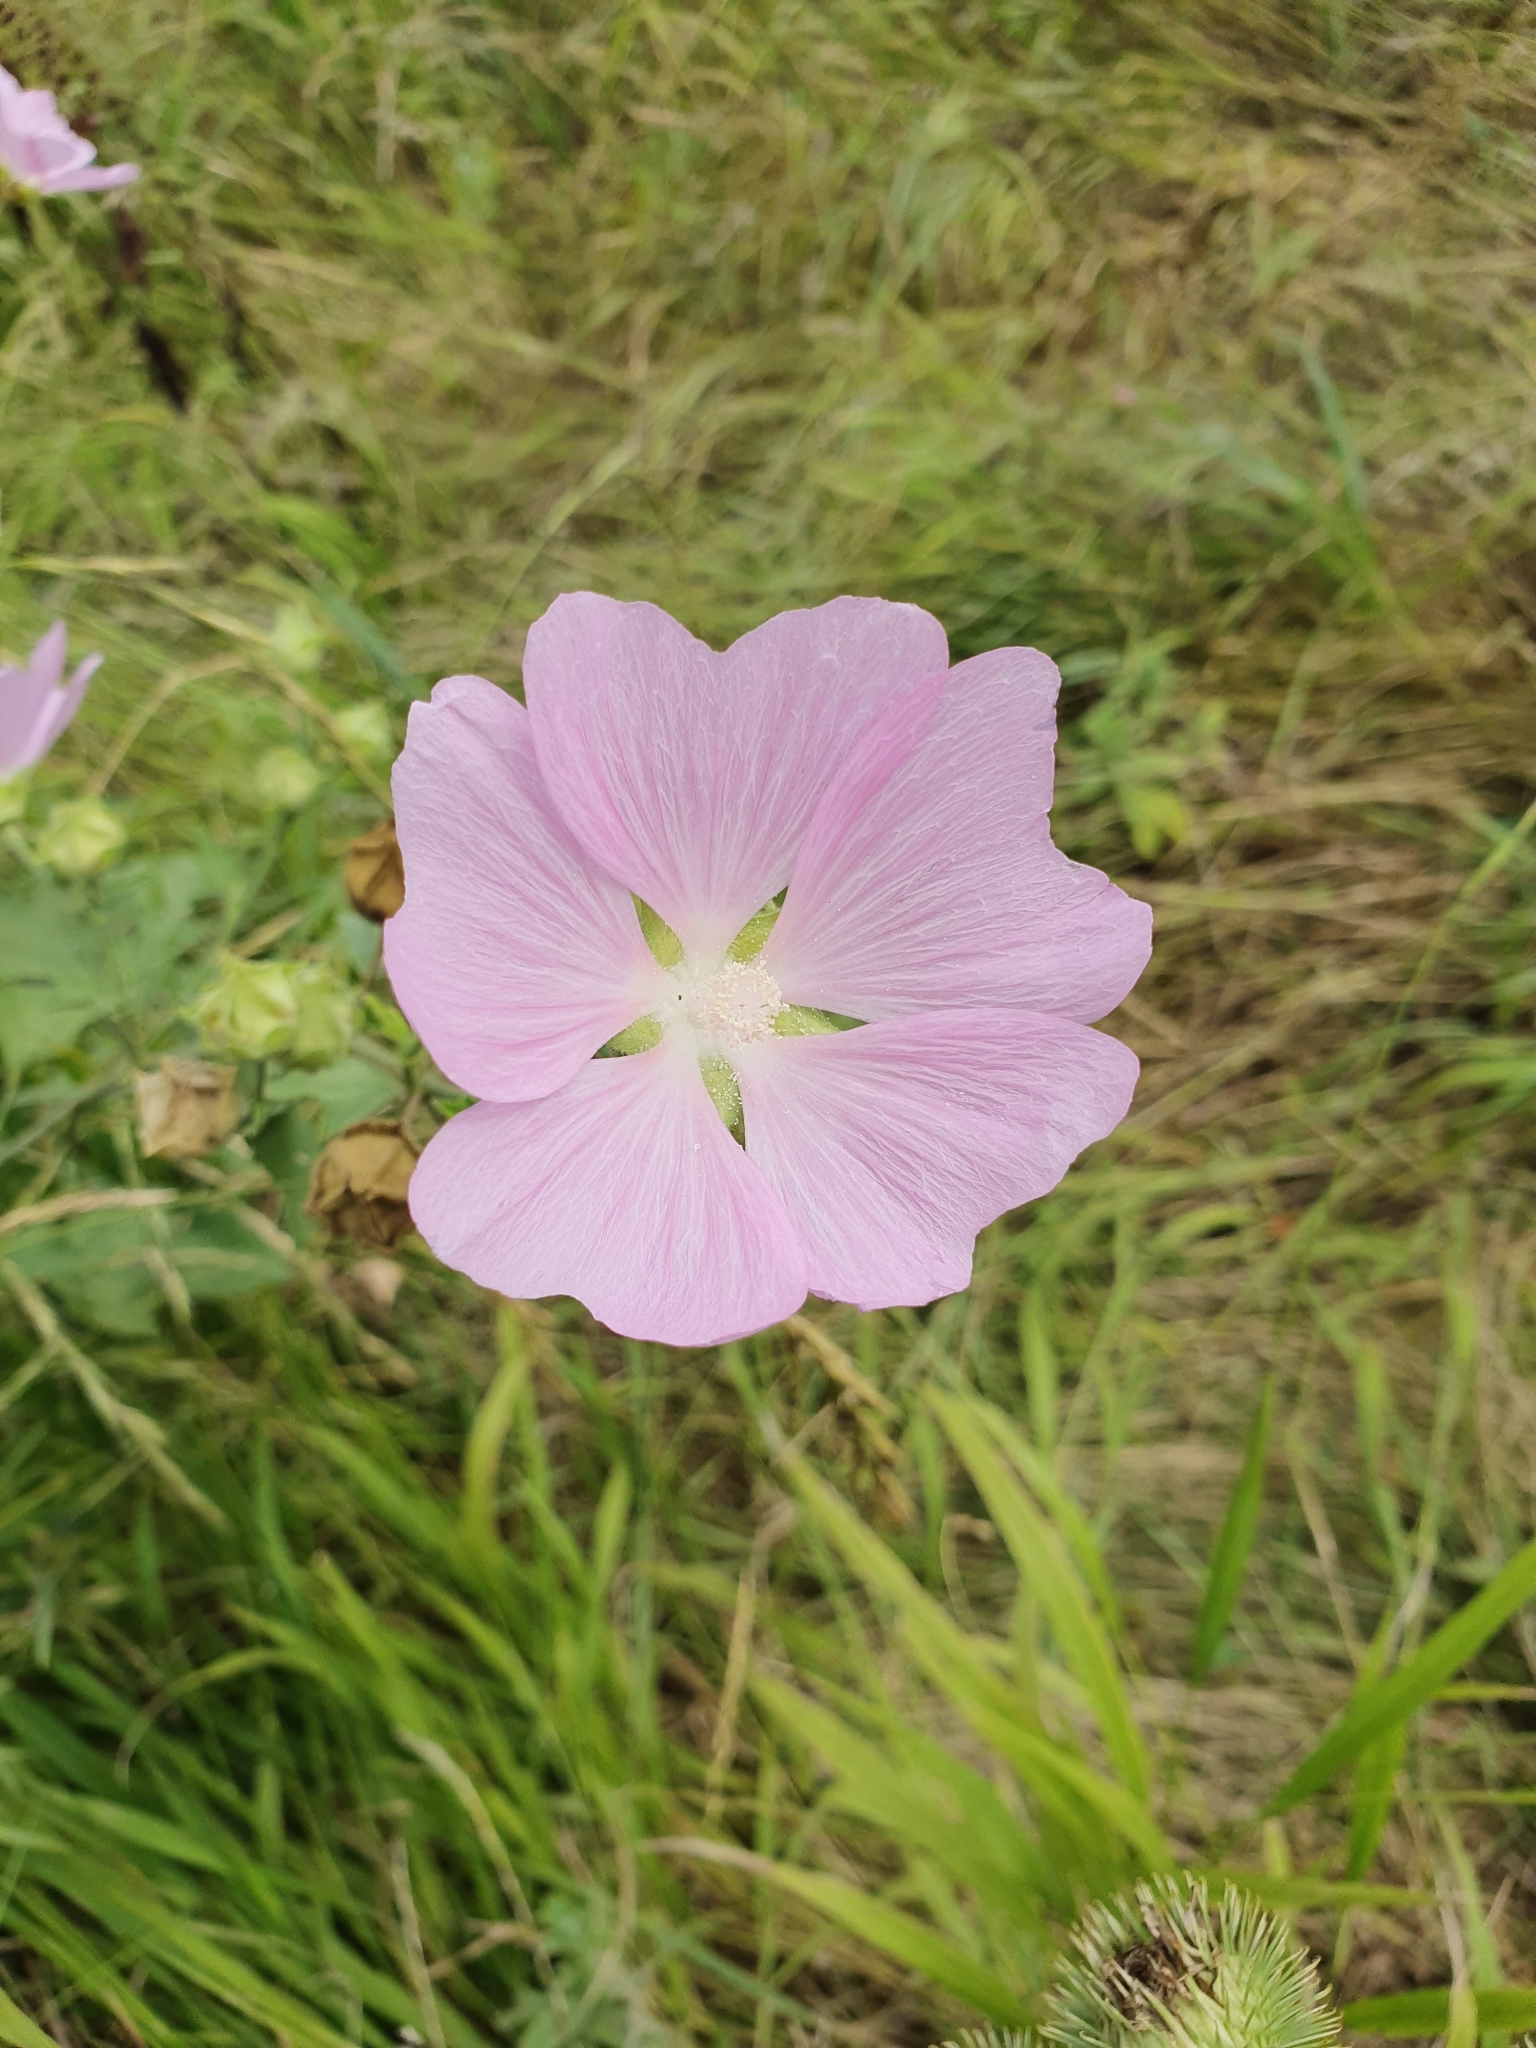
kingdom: Plantae
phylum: Tracheophyta
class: Magnoliopsida
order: Malvales
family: Malvaceae
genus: Malva
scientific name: Malva thuringiaca
